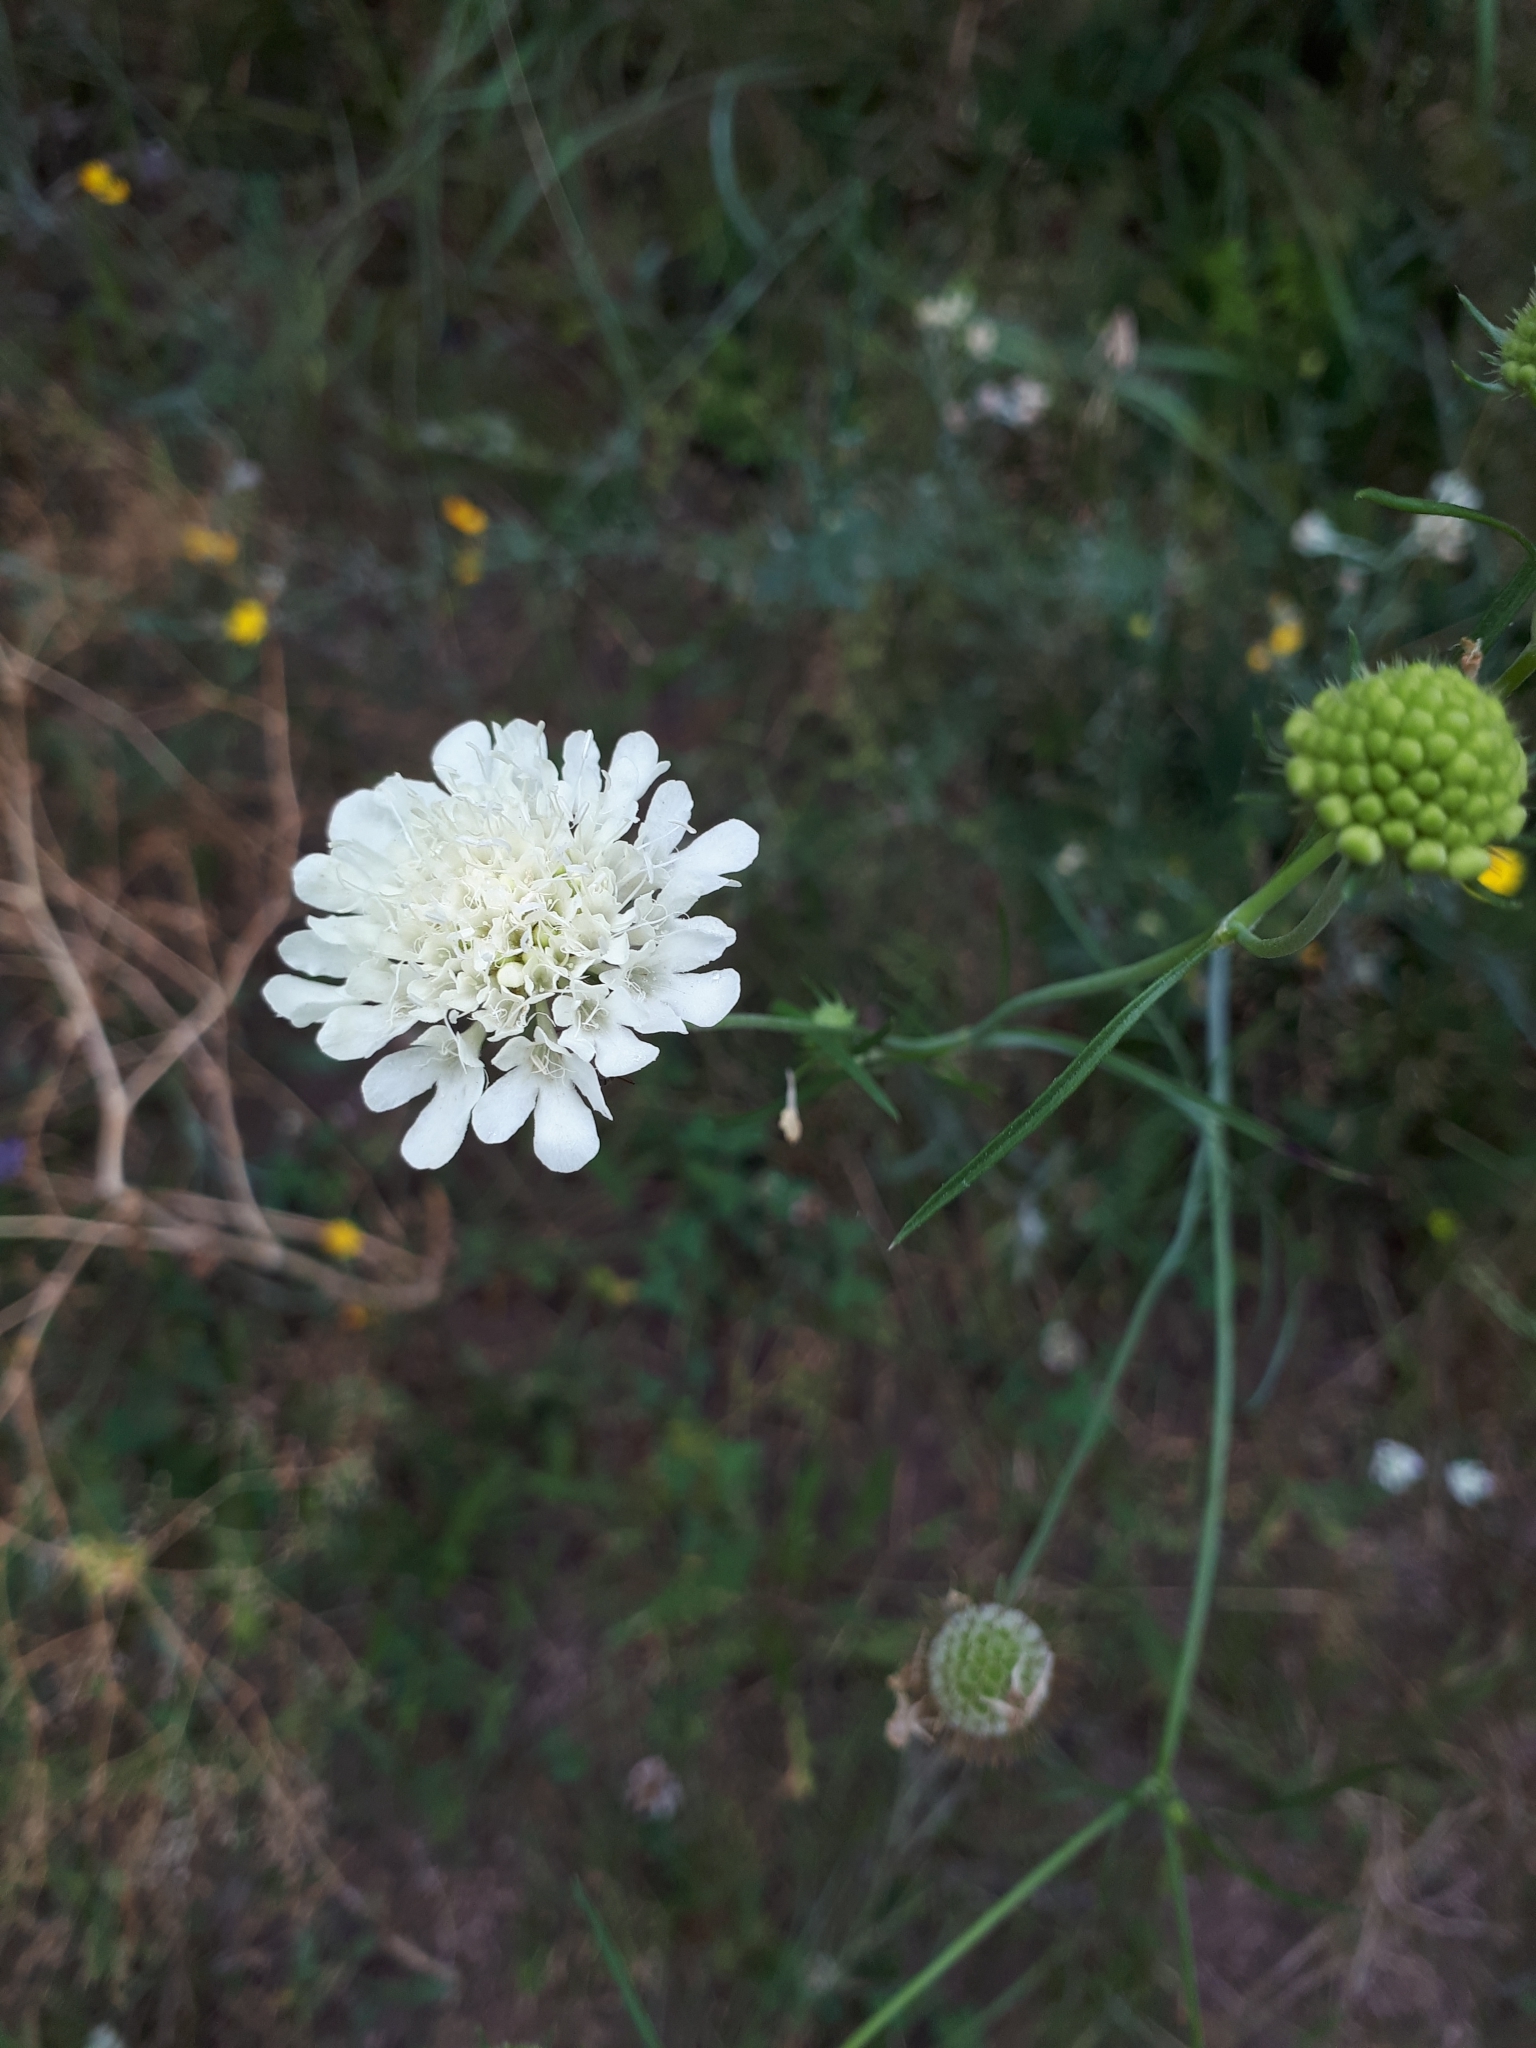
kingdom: Plantae
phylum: Tracheophyta
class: Magnoliopsida
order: Dipsacales
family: Caprifoliaceae
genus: Scabiosa
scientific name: Scabiosa ochroleuca
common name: Cream pincushions
